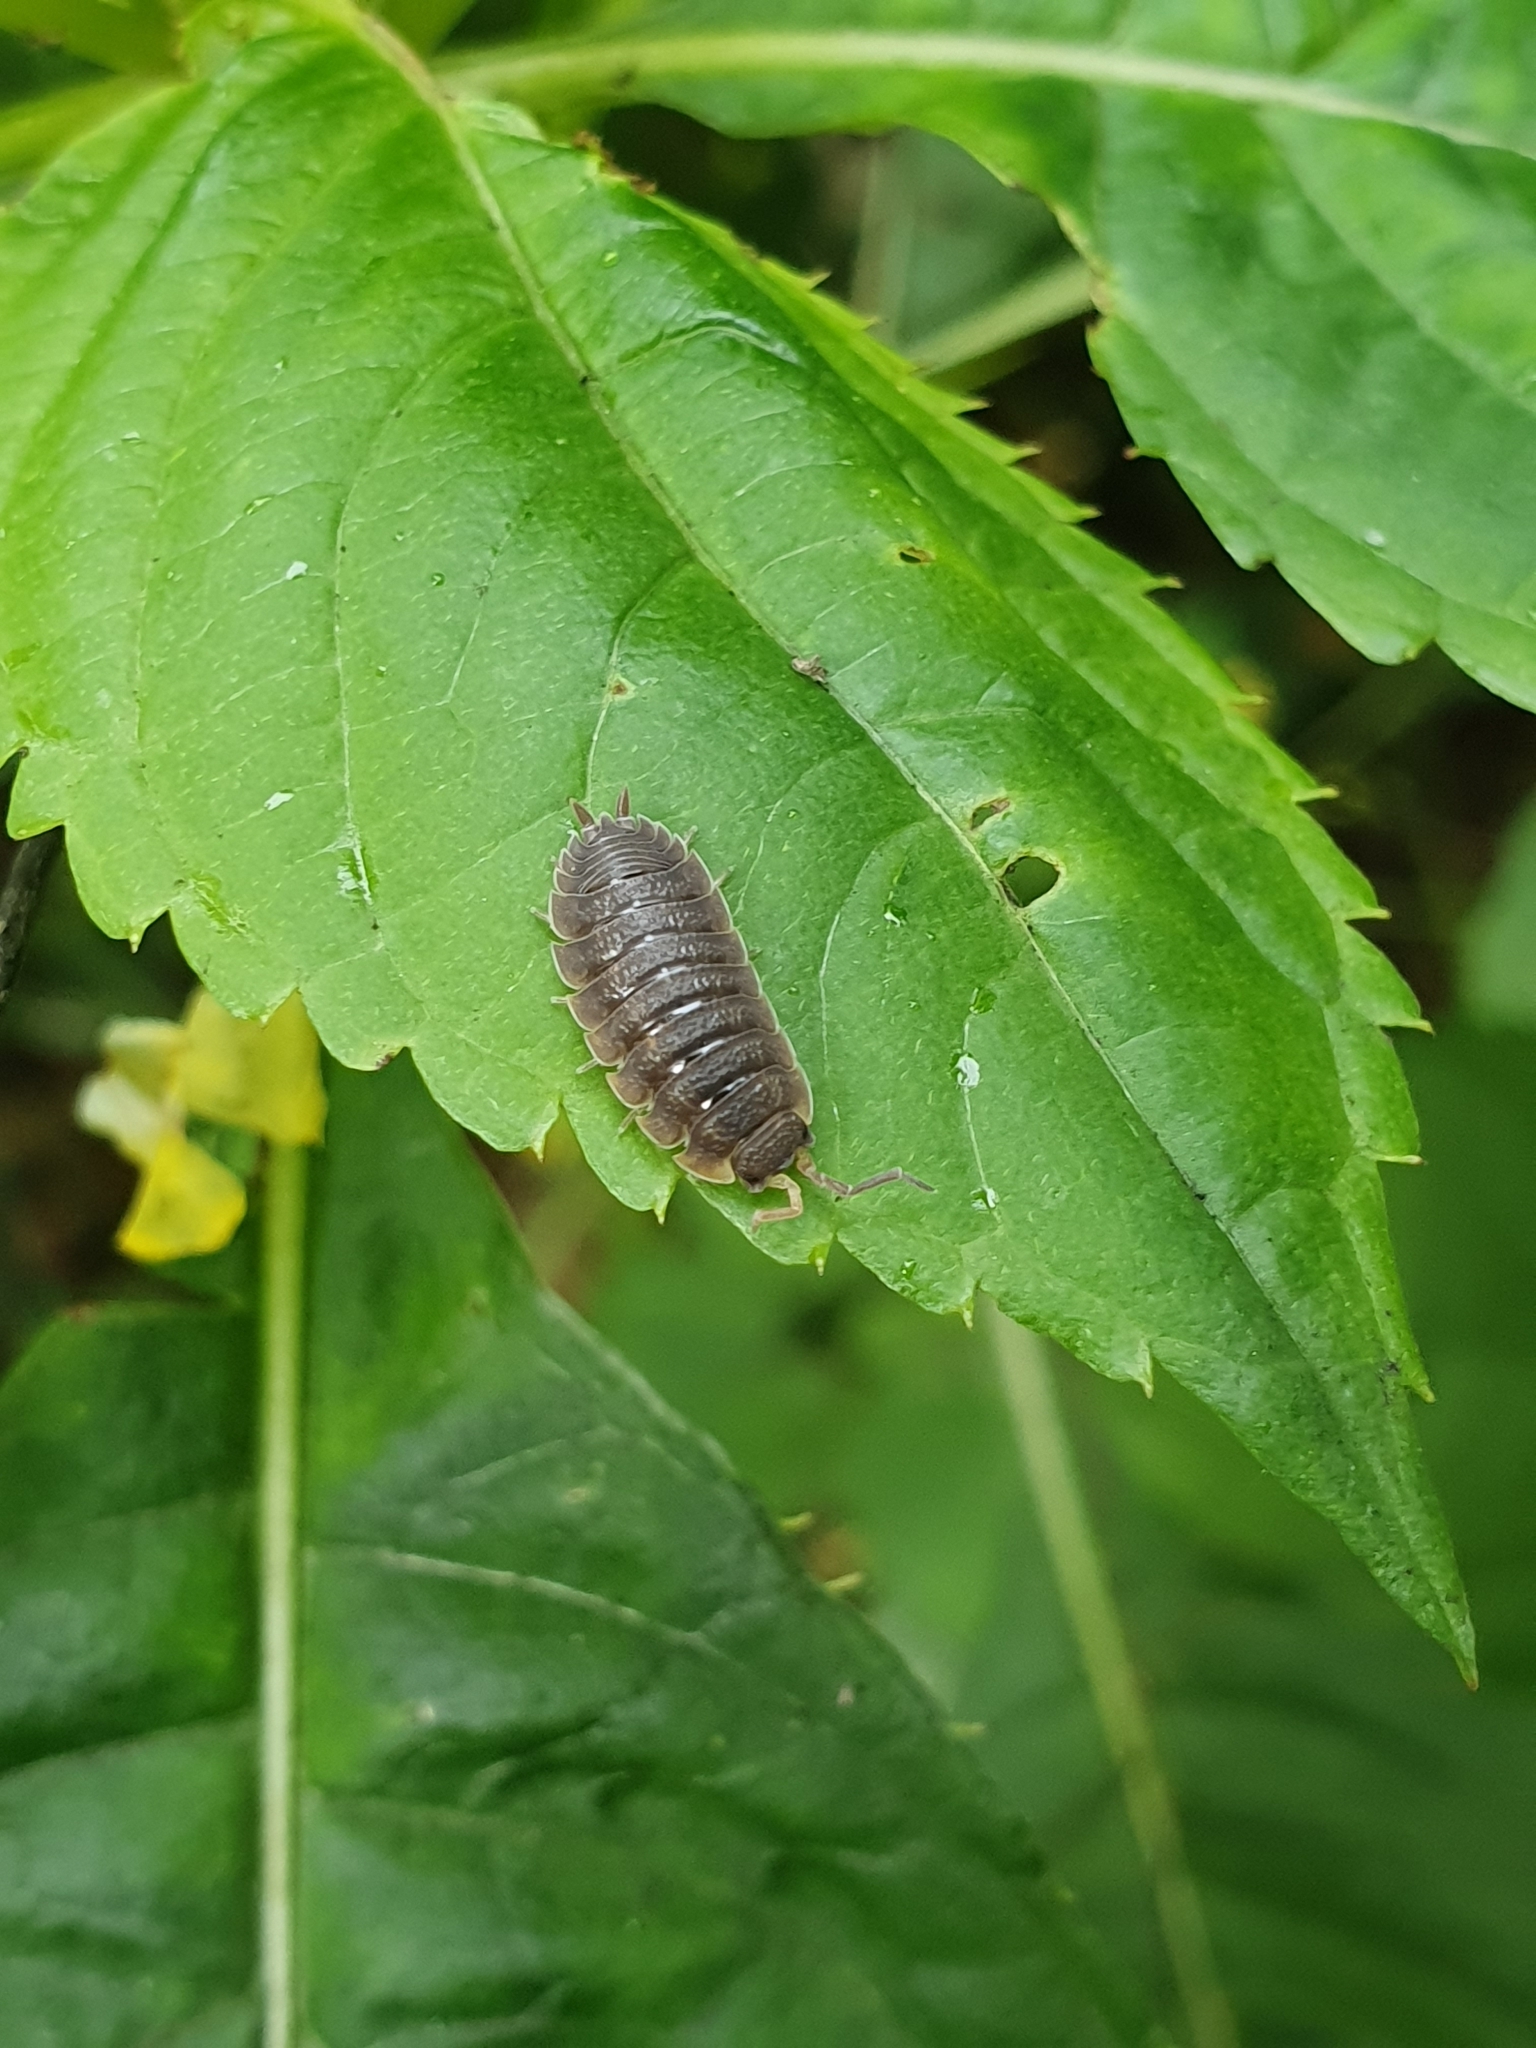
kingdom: Animalia
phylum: Arthropoda
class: Malacostraca
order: Isopoda
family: Porcellionidae
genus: Porcellio
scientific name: Porcellio scaber
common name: Common rough woodlouse
